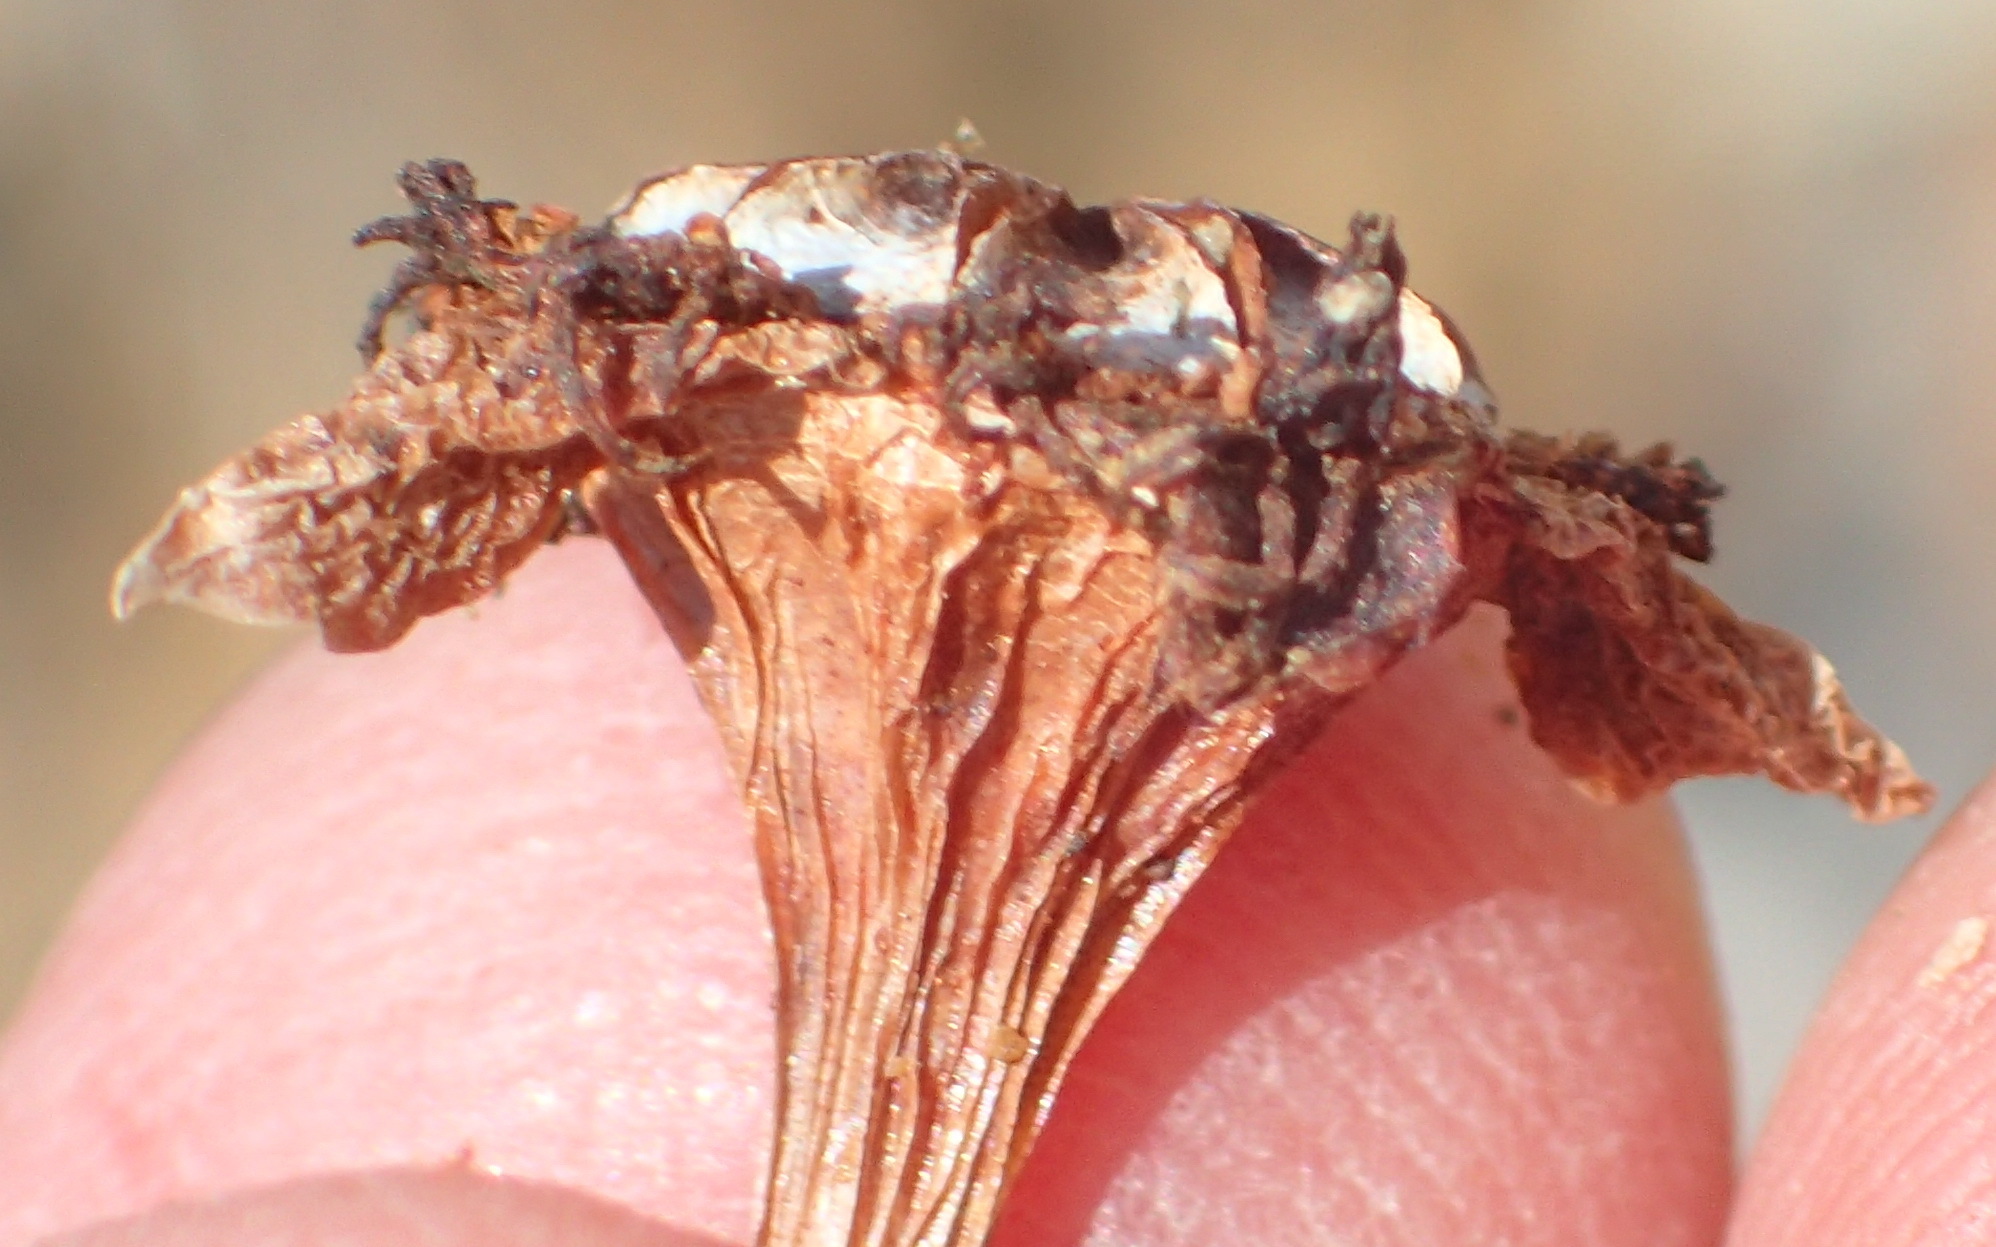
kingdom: Plantae
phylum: Tracheophyta
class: Magnoliopsida
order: Caryophyllales
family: Aizoaceae
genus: Smicrostigma
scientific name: Smicrostigma viride
